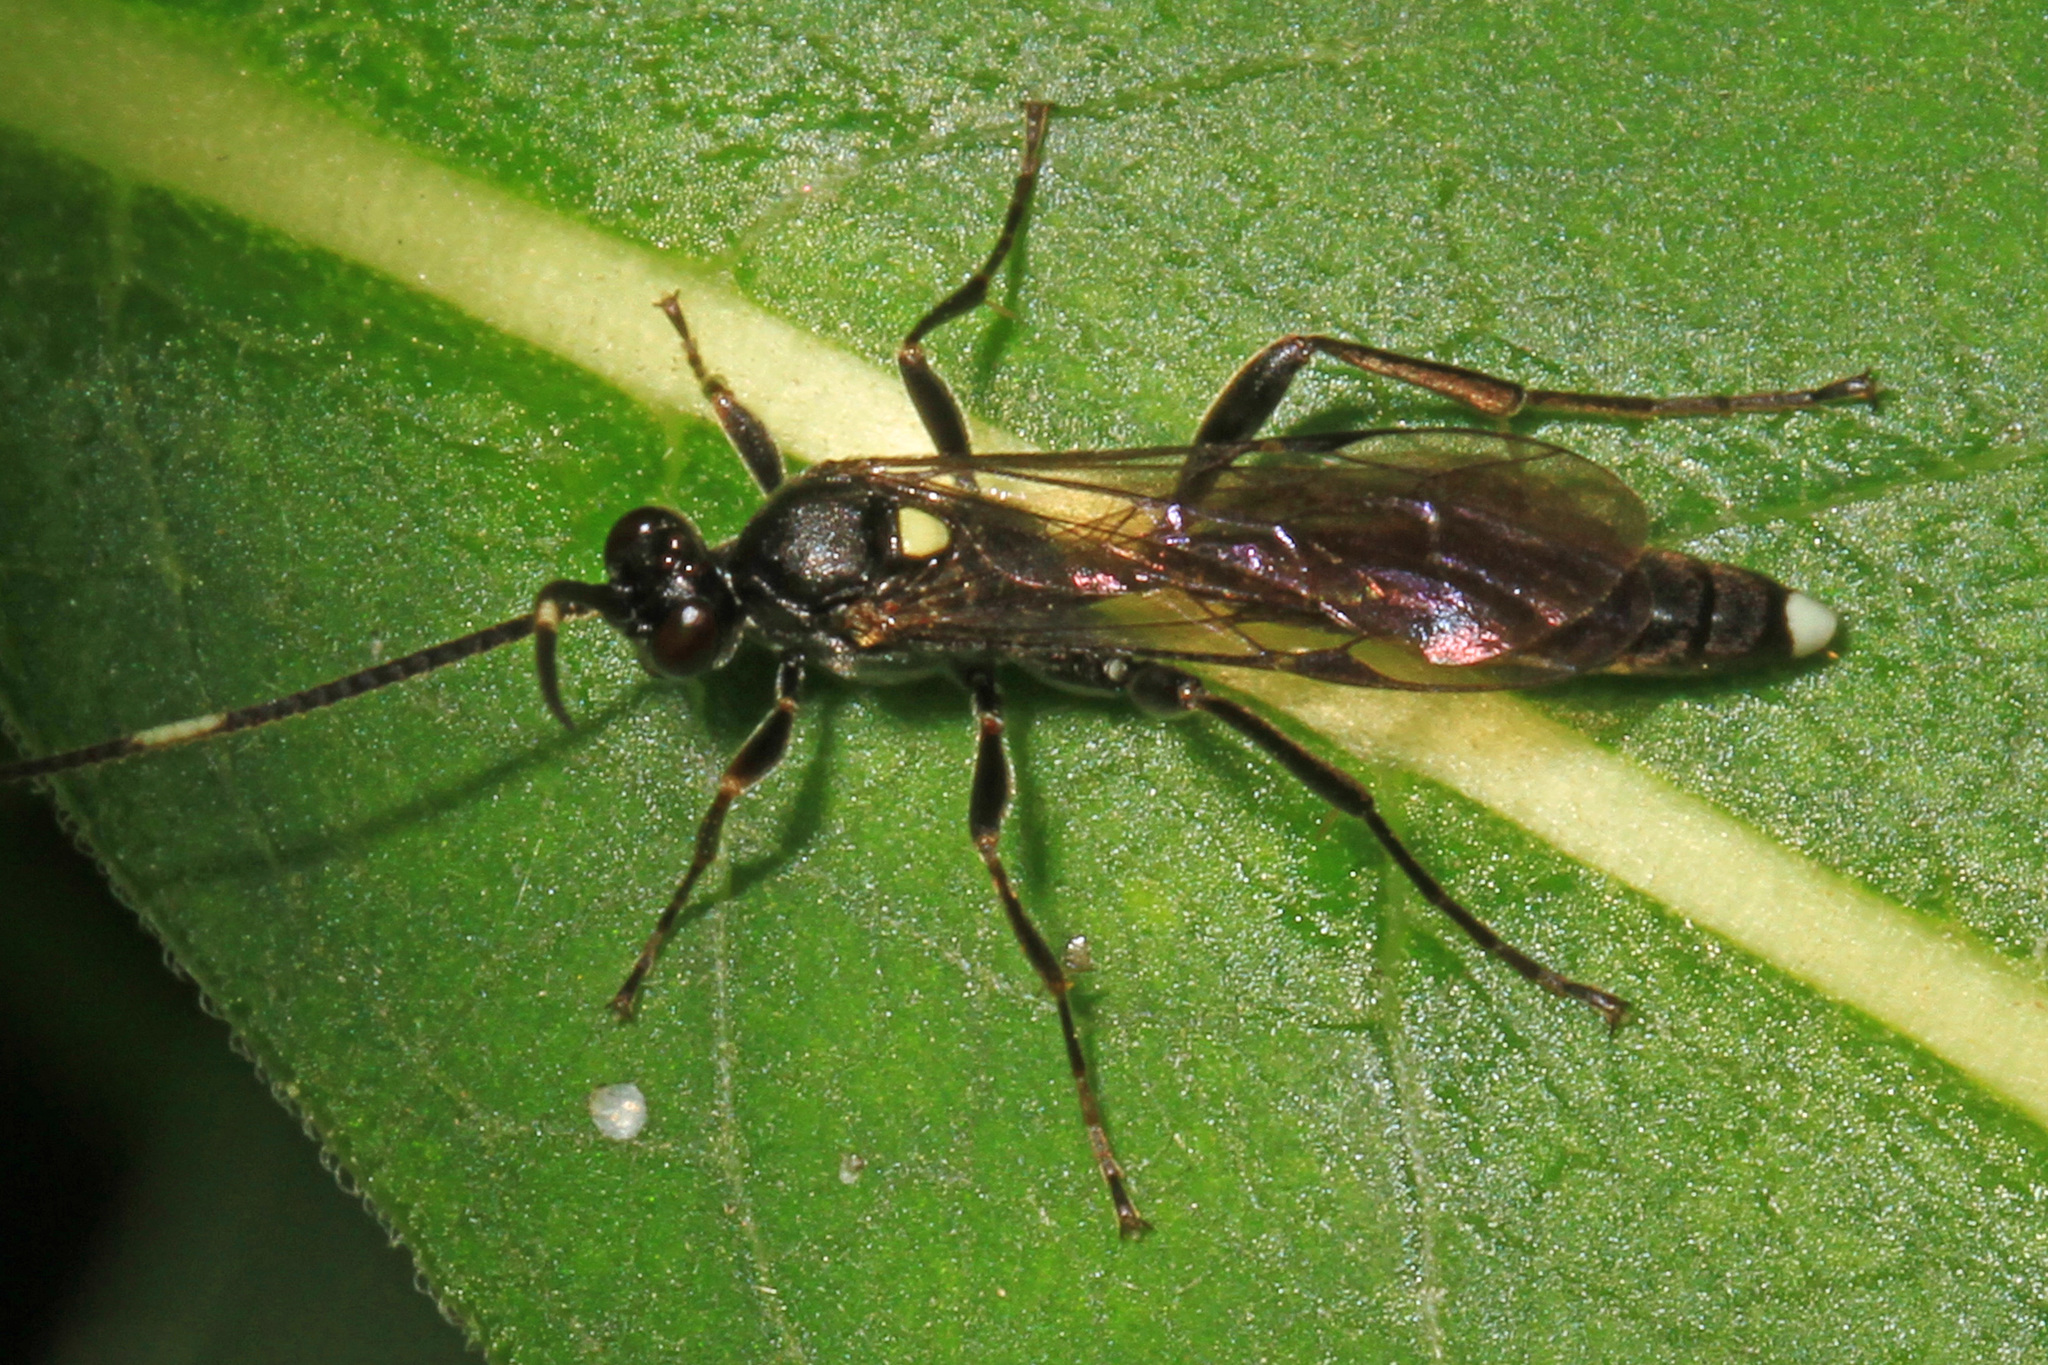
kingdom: Animalia
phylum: Arthropoda
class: Insecta
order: Hymenoptera
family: Ichneumonidae
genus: Vulgichneumon
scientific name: Vulgichneumon brevicinctor
